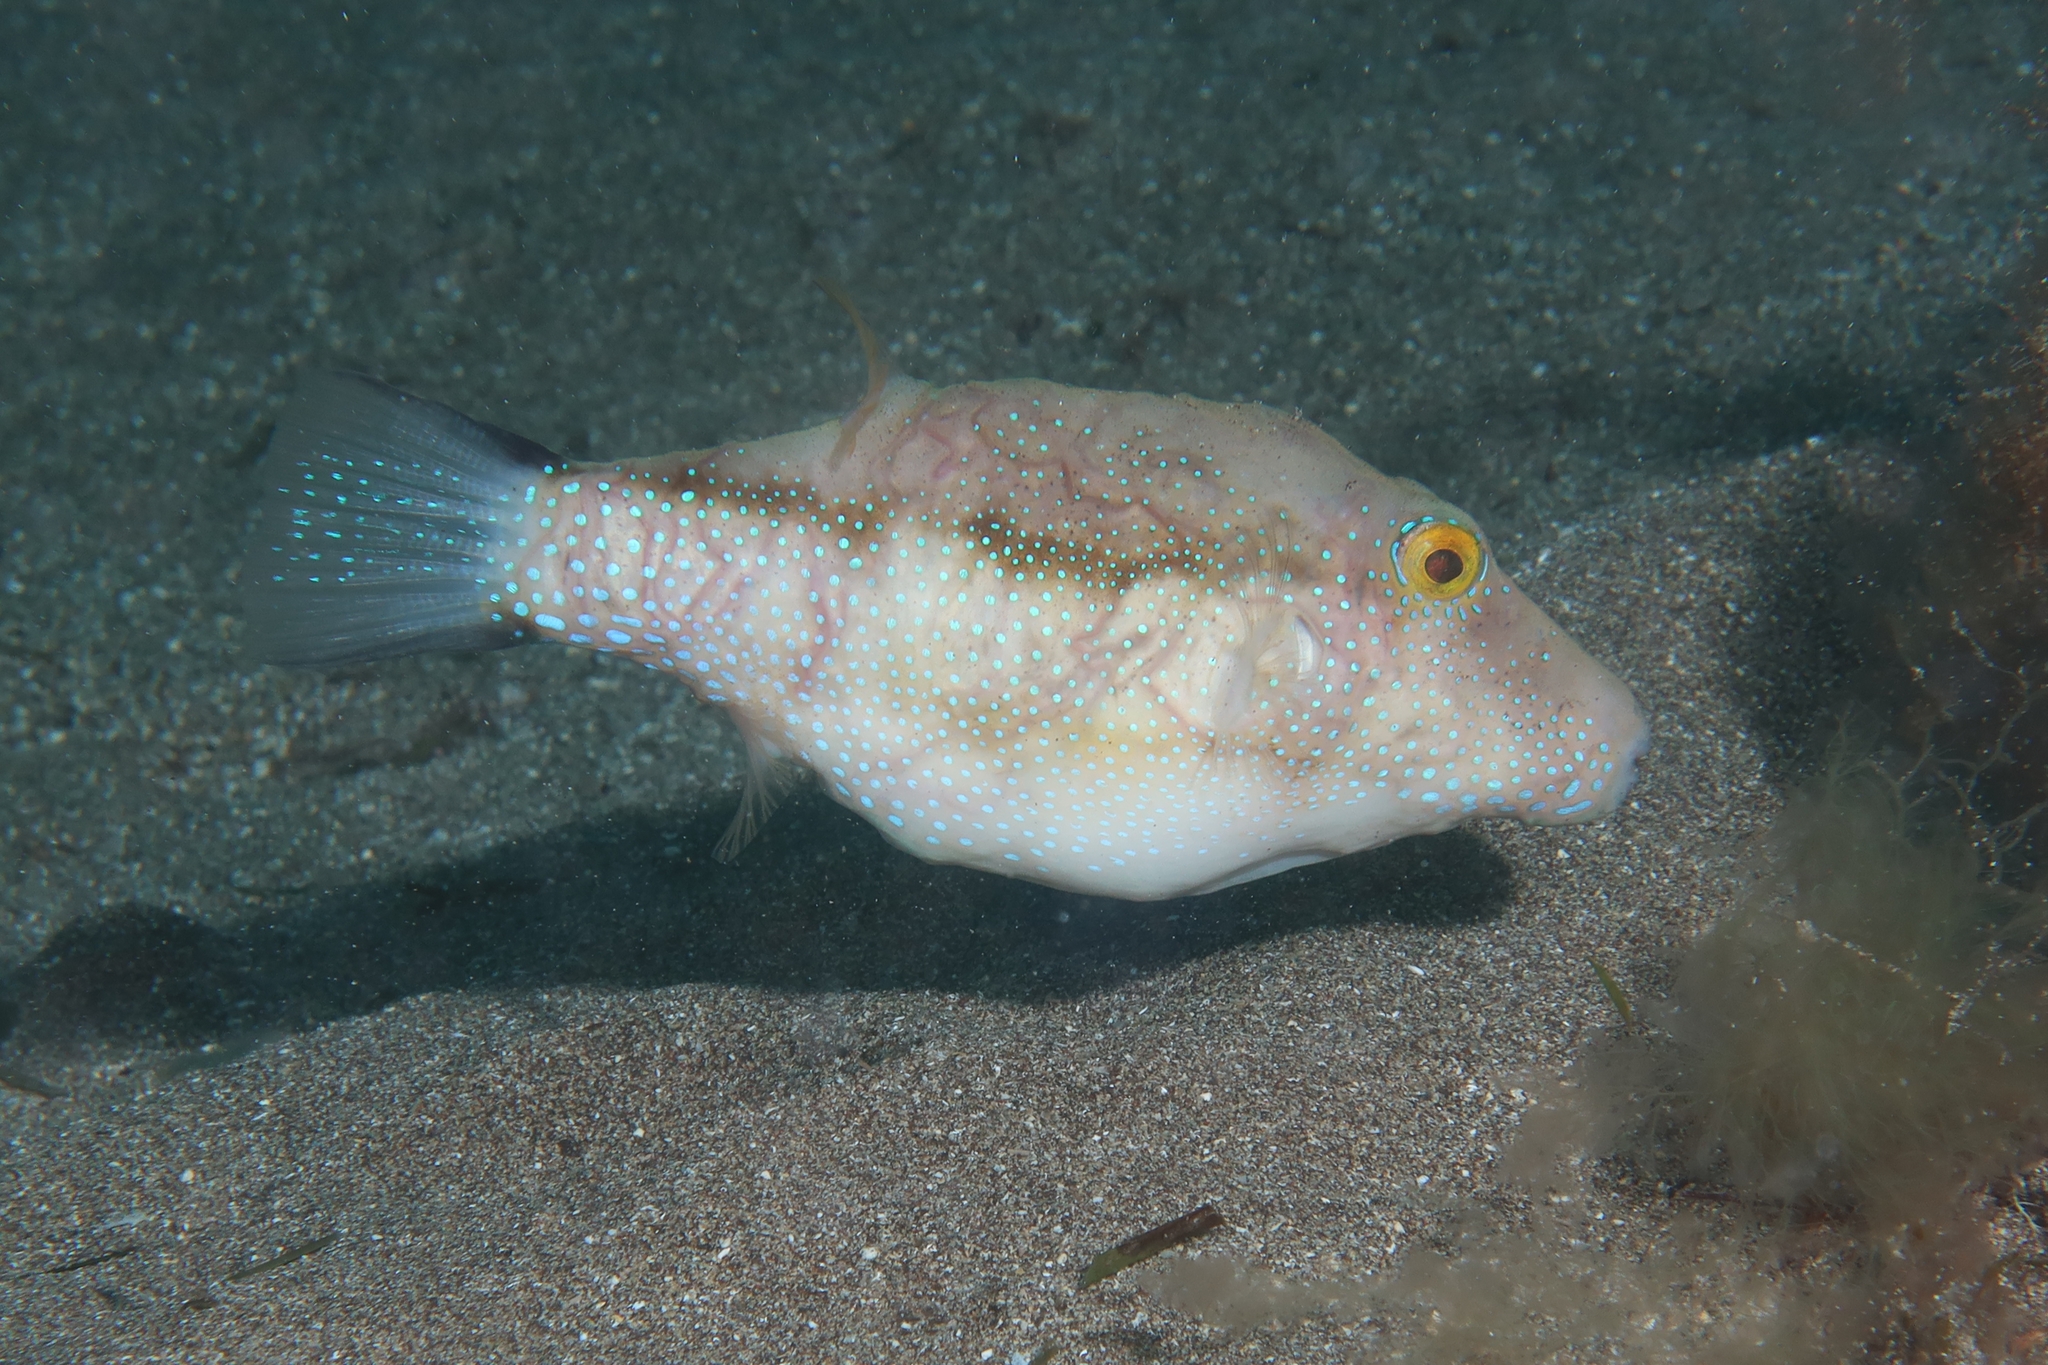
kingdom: Animalia
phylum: Chordata
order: Tetraodontiformes
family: Tetraodontidae
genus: Canthigaster
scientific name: Canthigaster capistrata
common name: Macaronesian sharpnose-puffer
